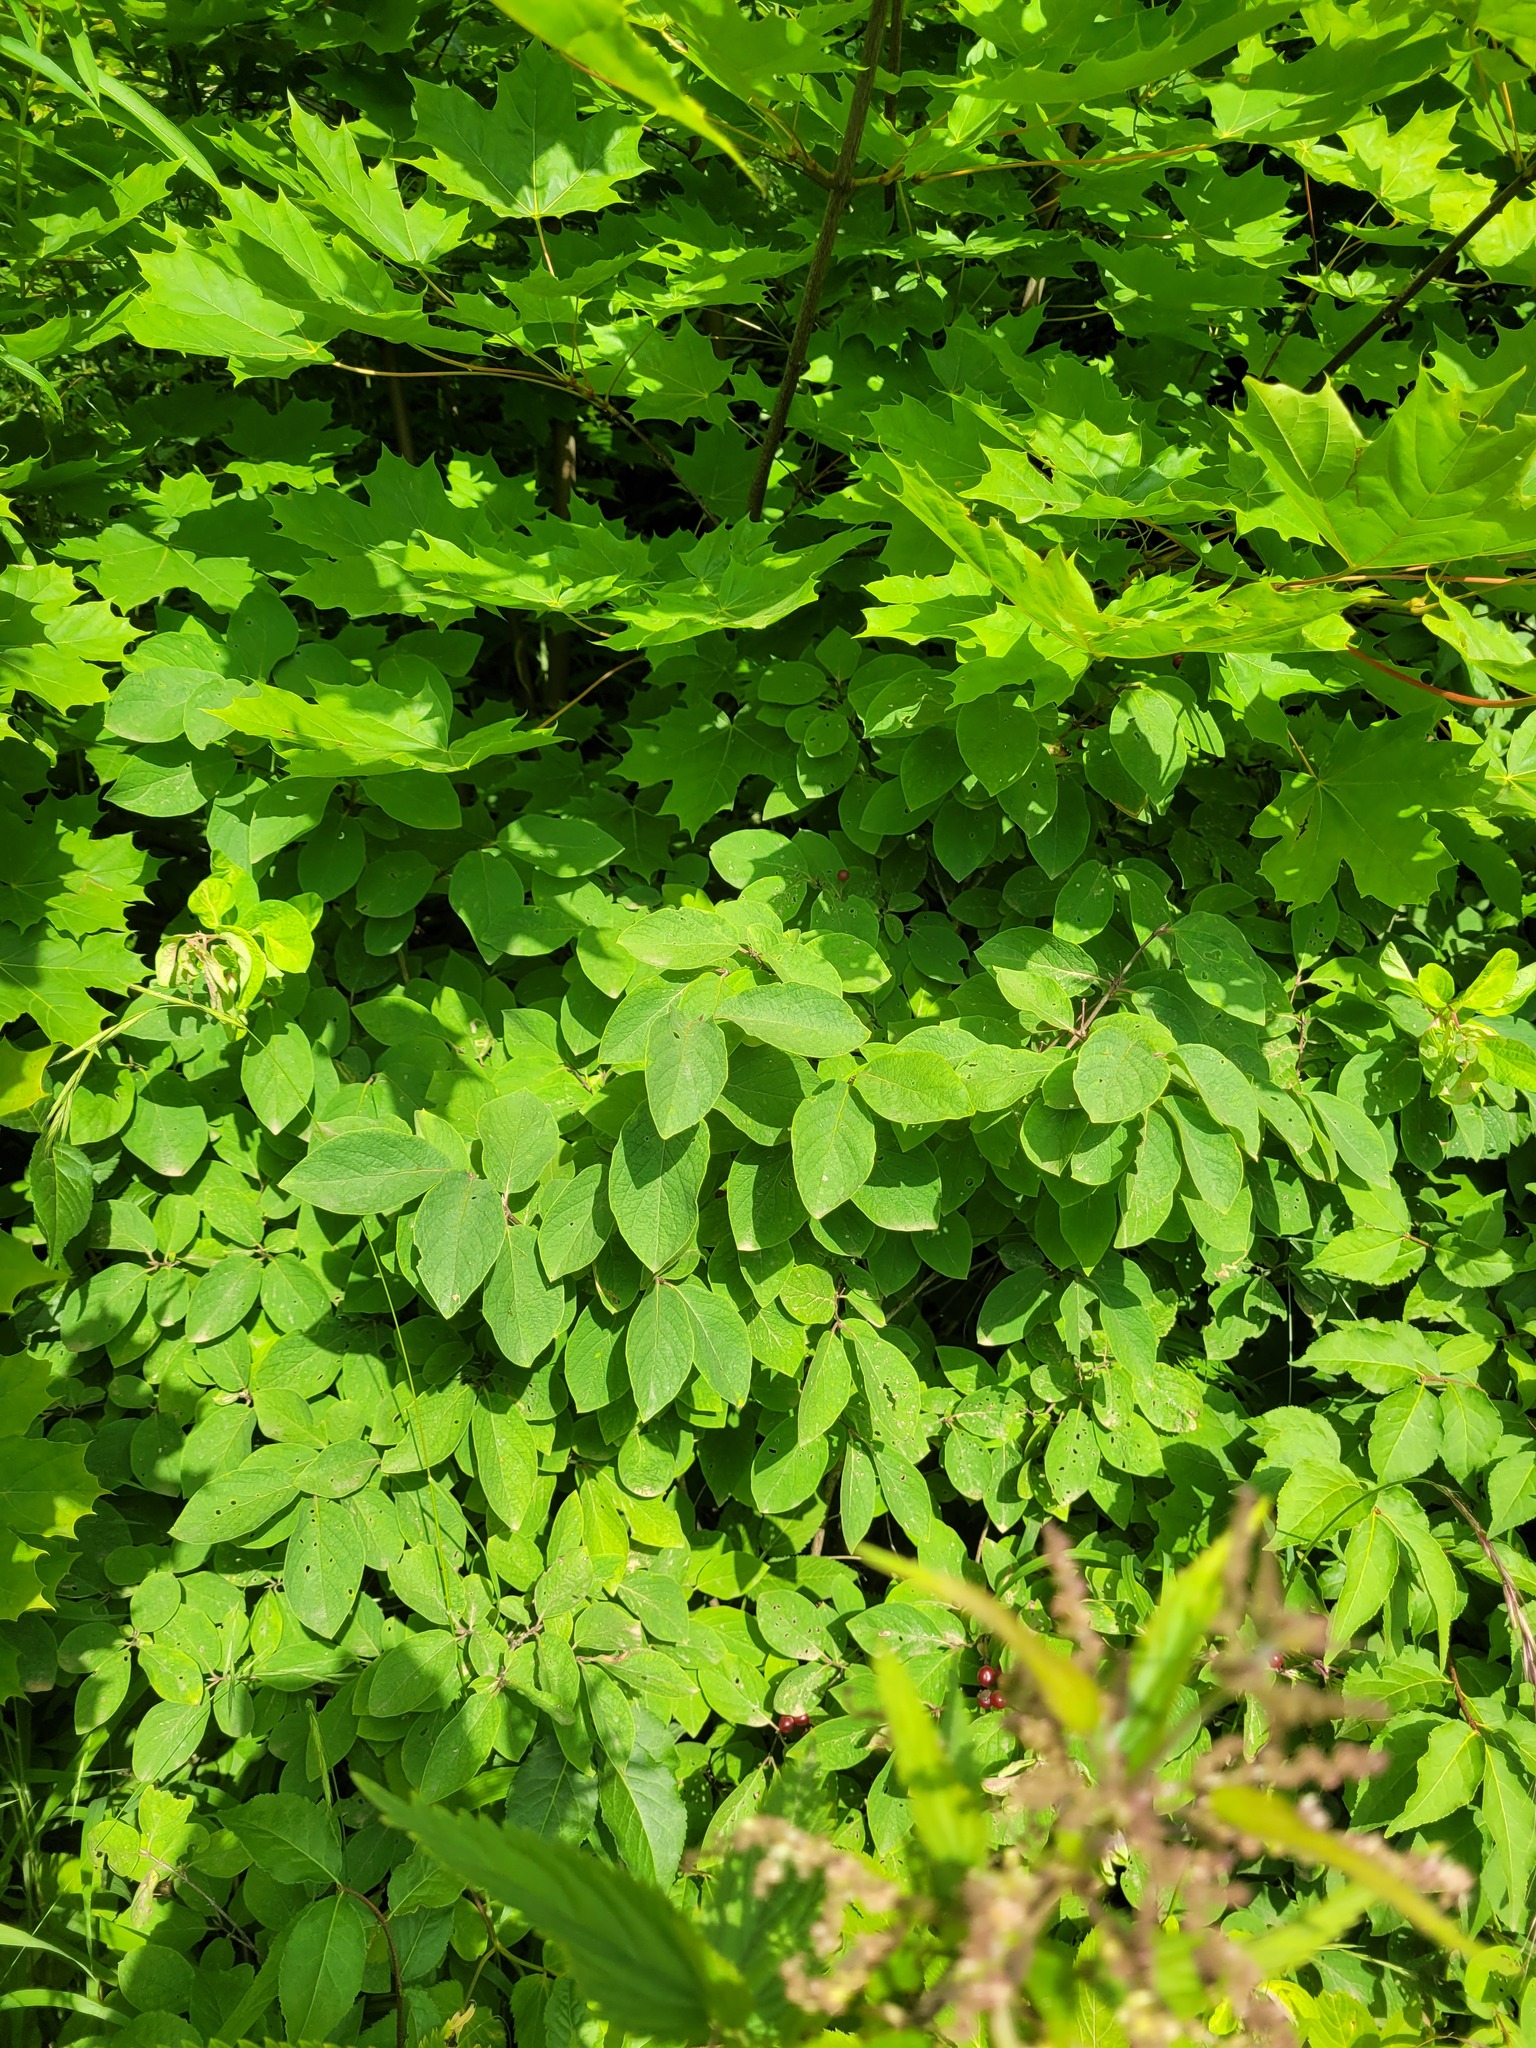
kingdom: Plantae
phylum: Tracheophyta
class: Magnoliopsida
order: Dipsacales
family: Caprifoliaceae
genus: Lonicera
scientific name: Lonicera xylosteum
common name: Fly honeysuckle
